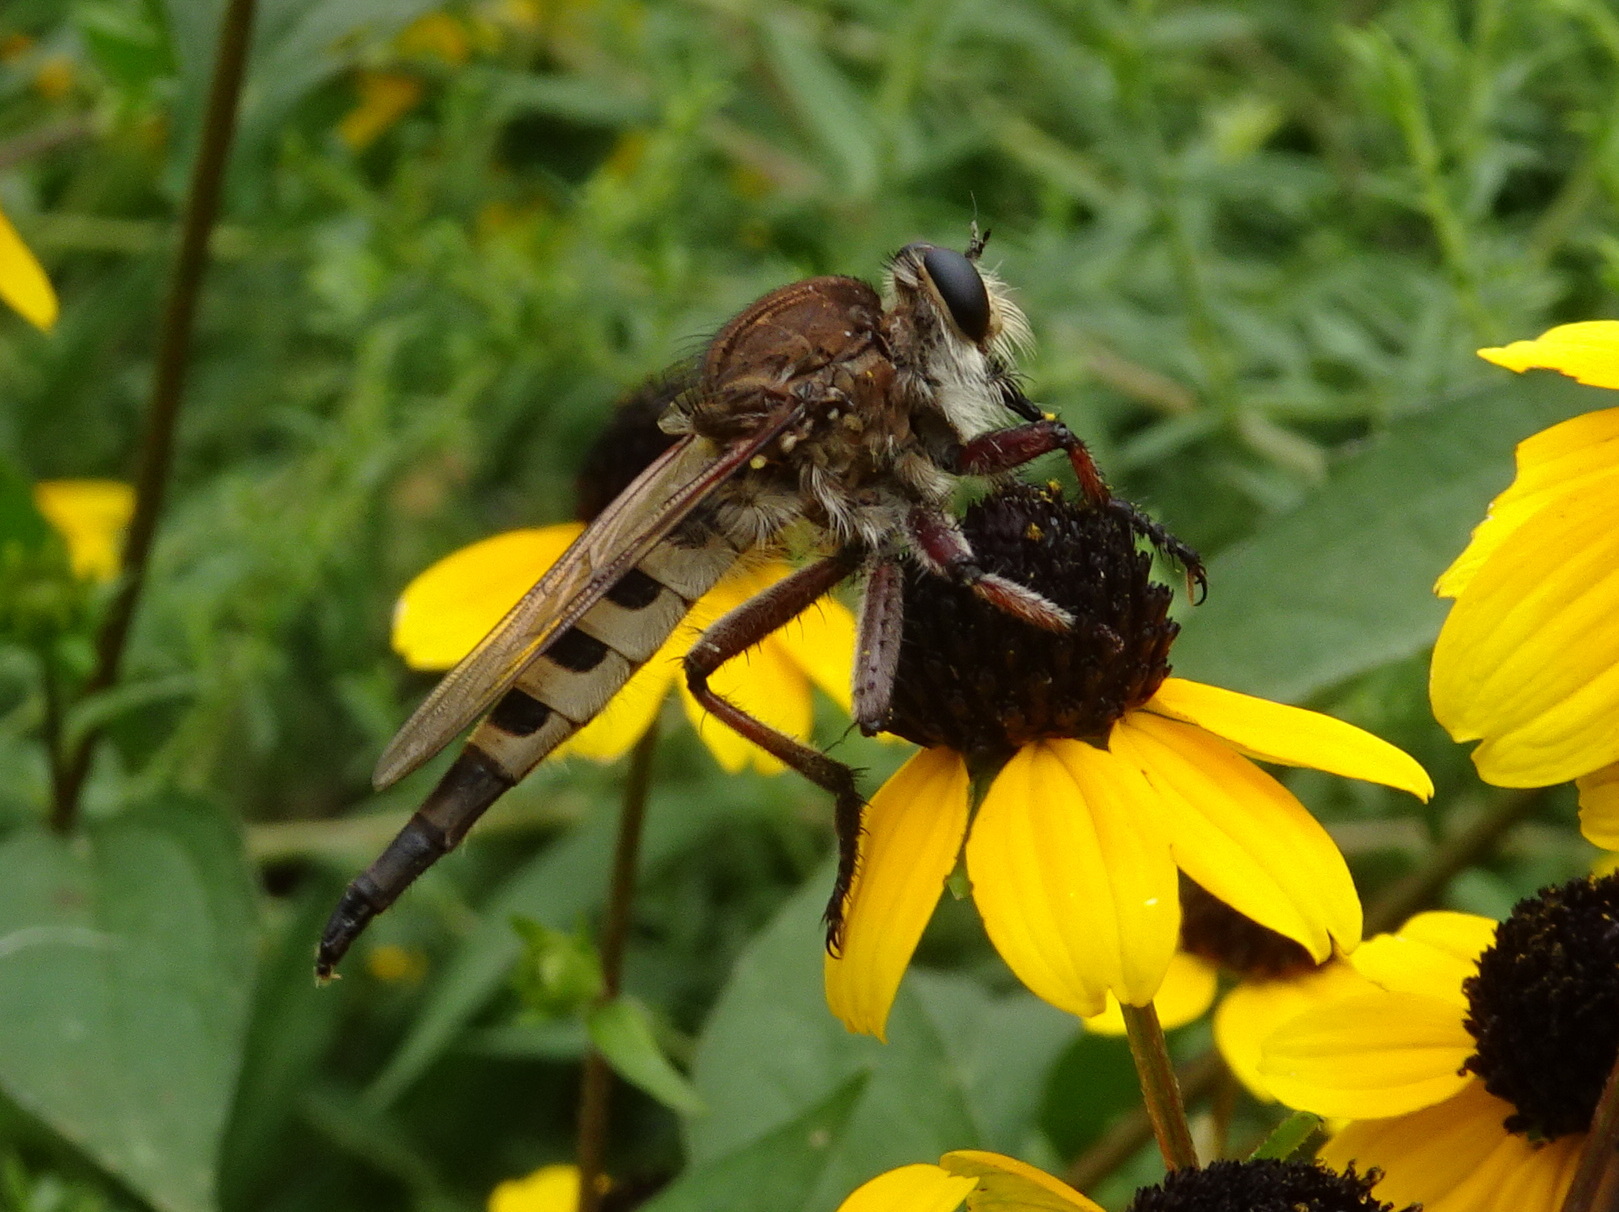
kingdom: Animalia
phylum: Arthropoda
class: Insecta
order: Diptera
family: Asilidae
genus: Promachus
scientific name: Promachus hinei
